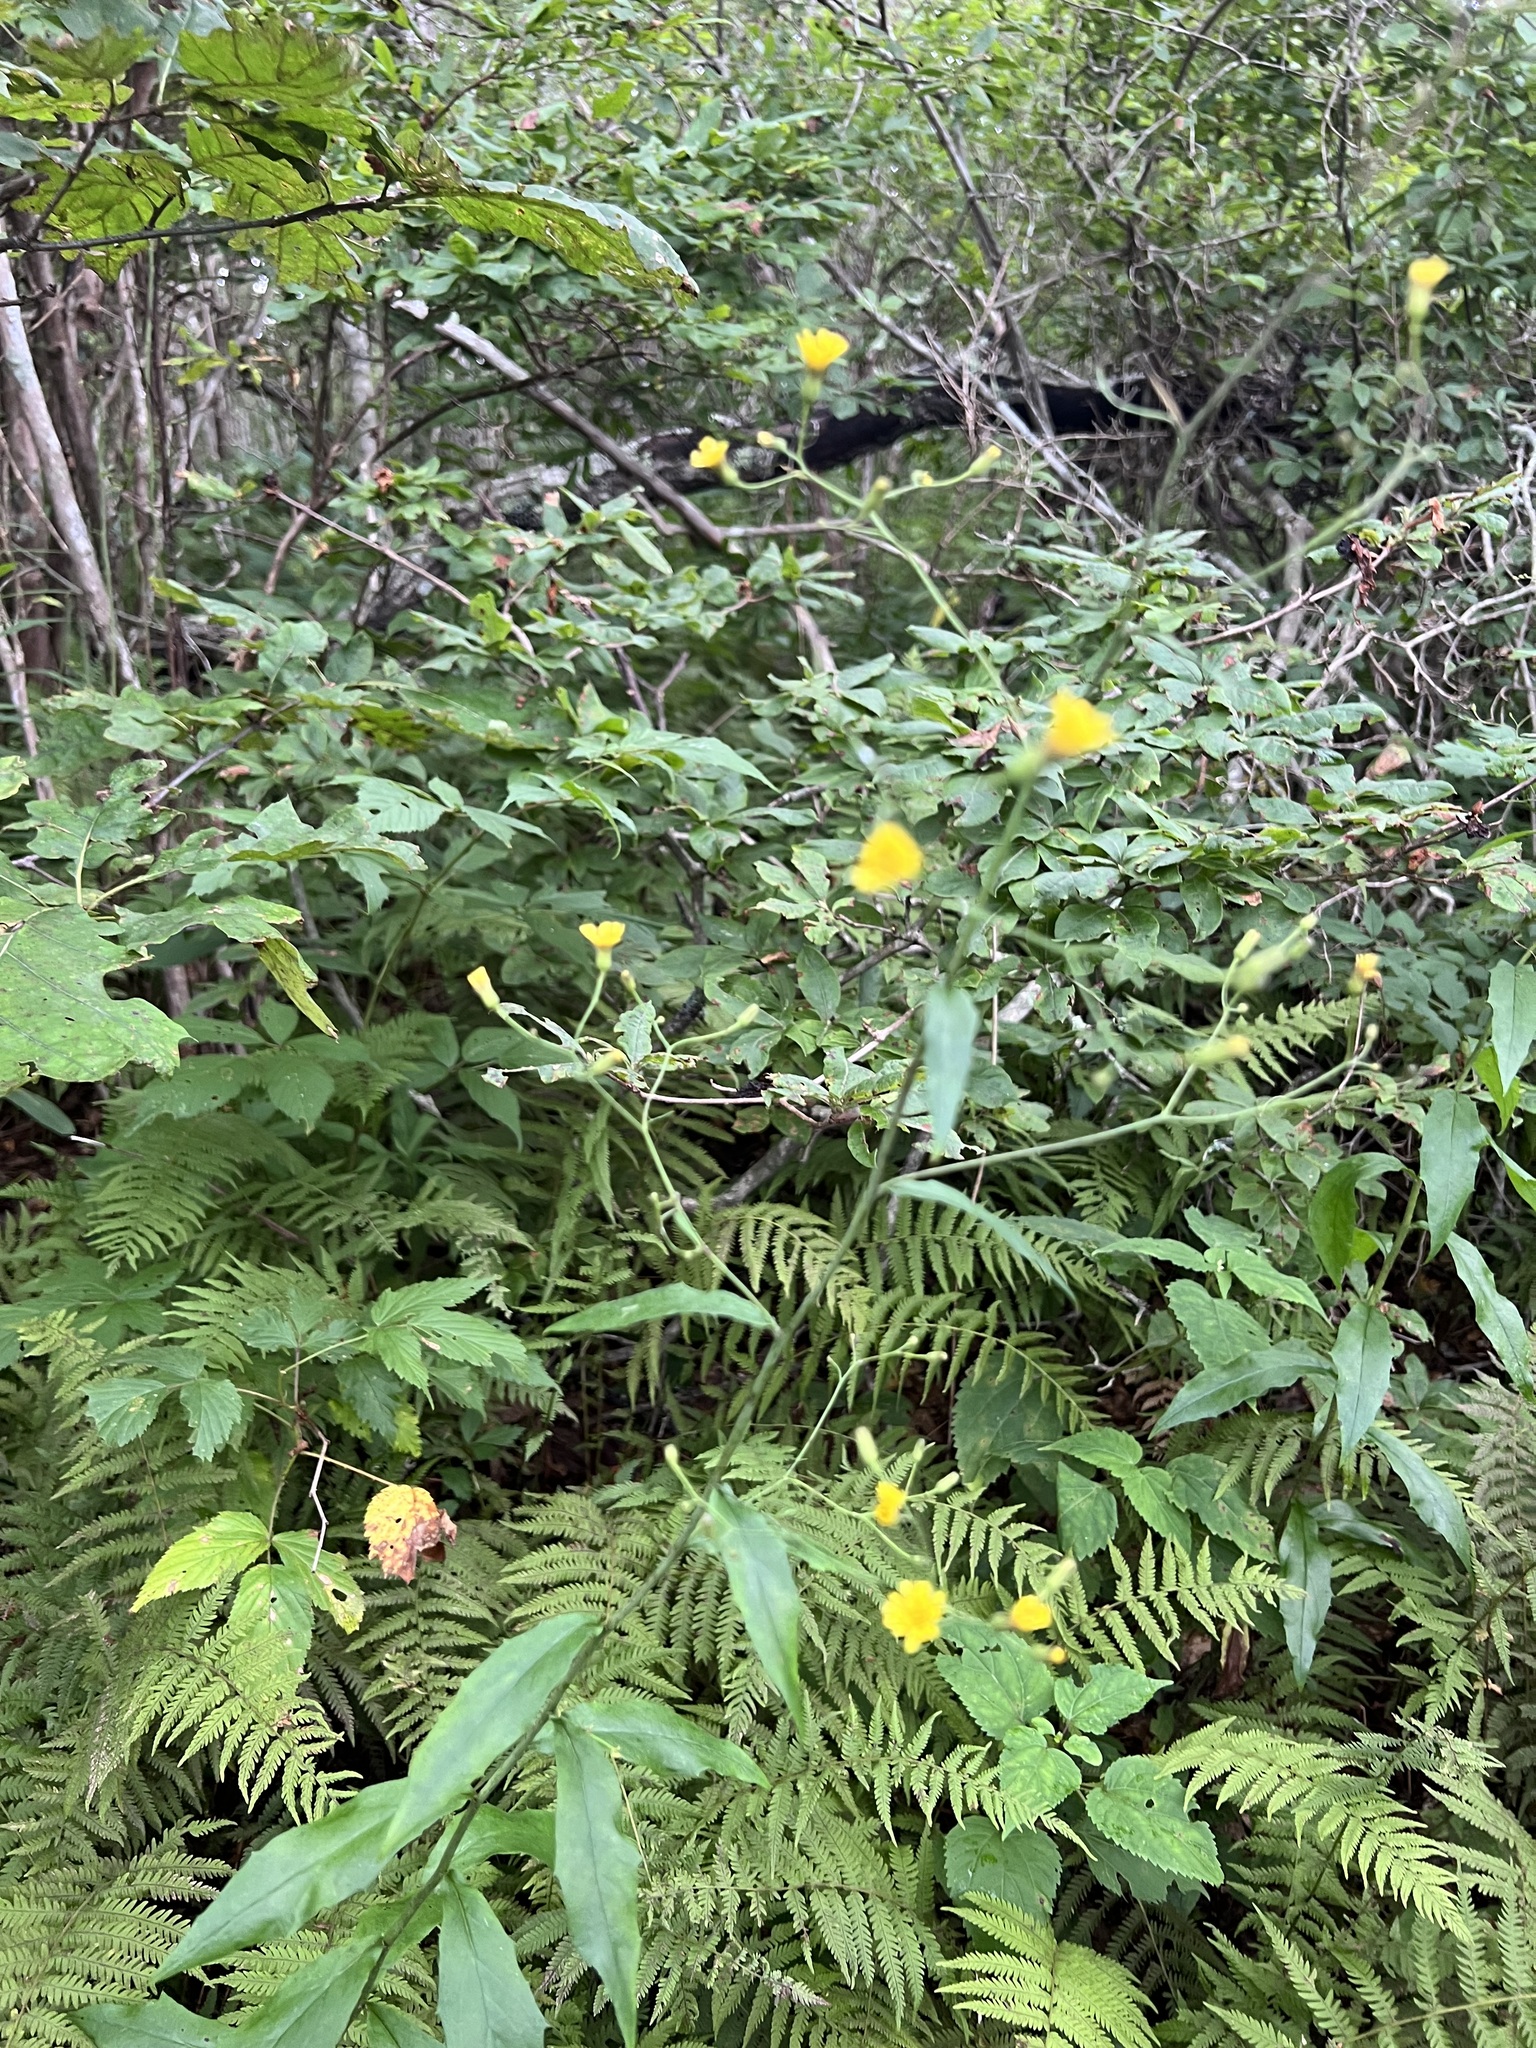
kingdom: Plantae
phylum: Tracheophyta
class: Magnoliopsida
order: Asterales
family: Asteraceae
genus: Hieracium
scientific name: Hieracium paniculatum
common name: Allegheny hawkweed
